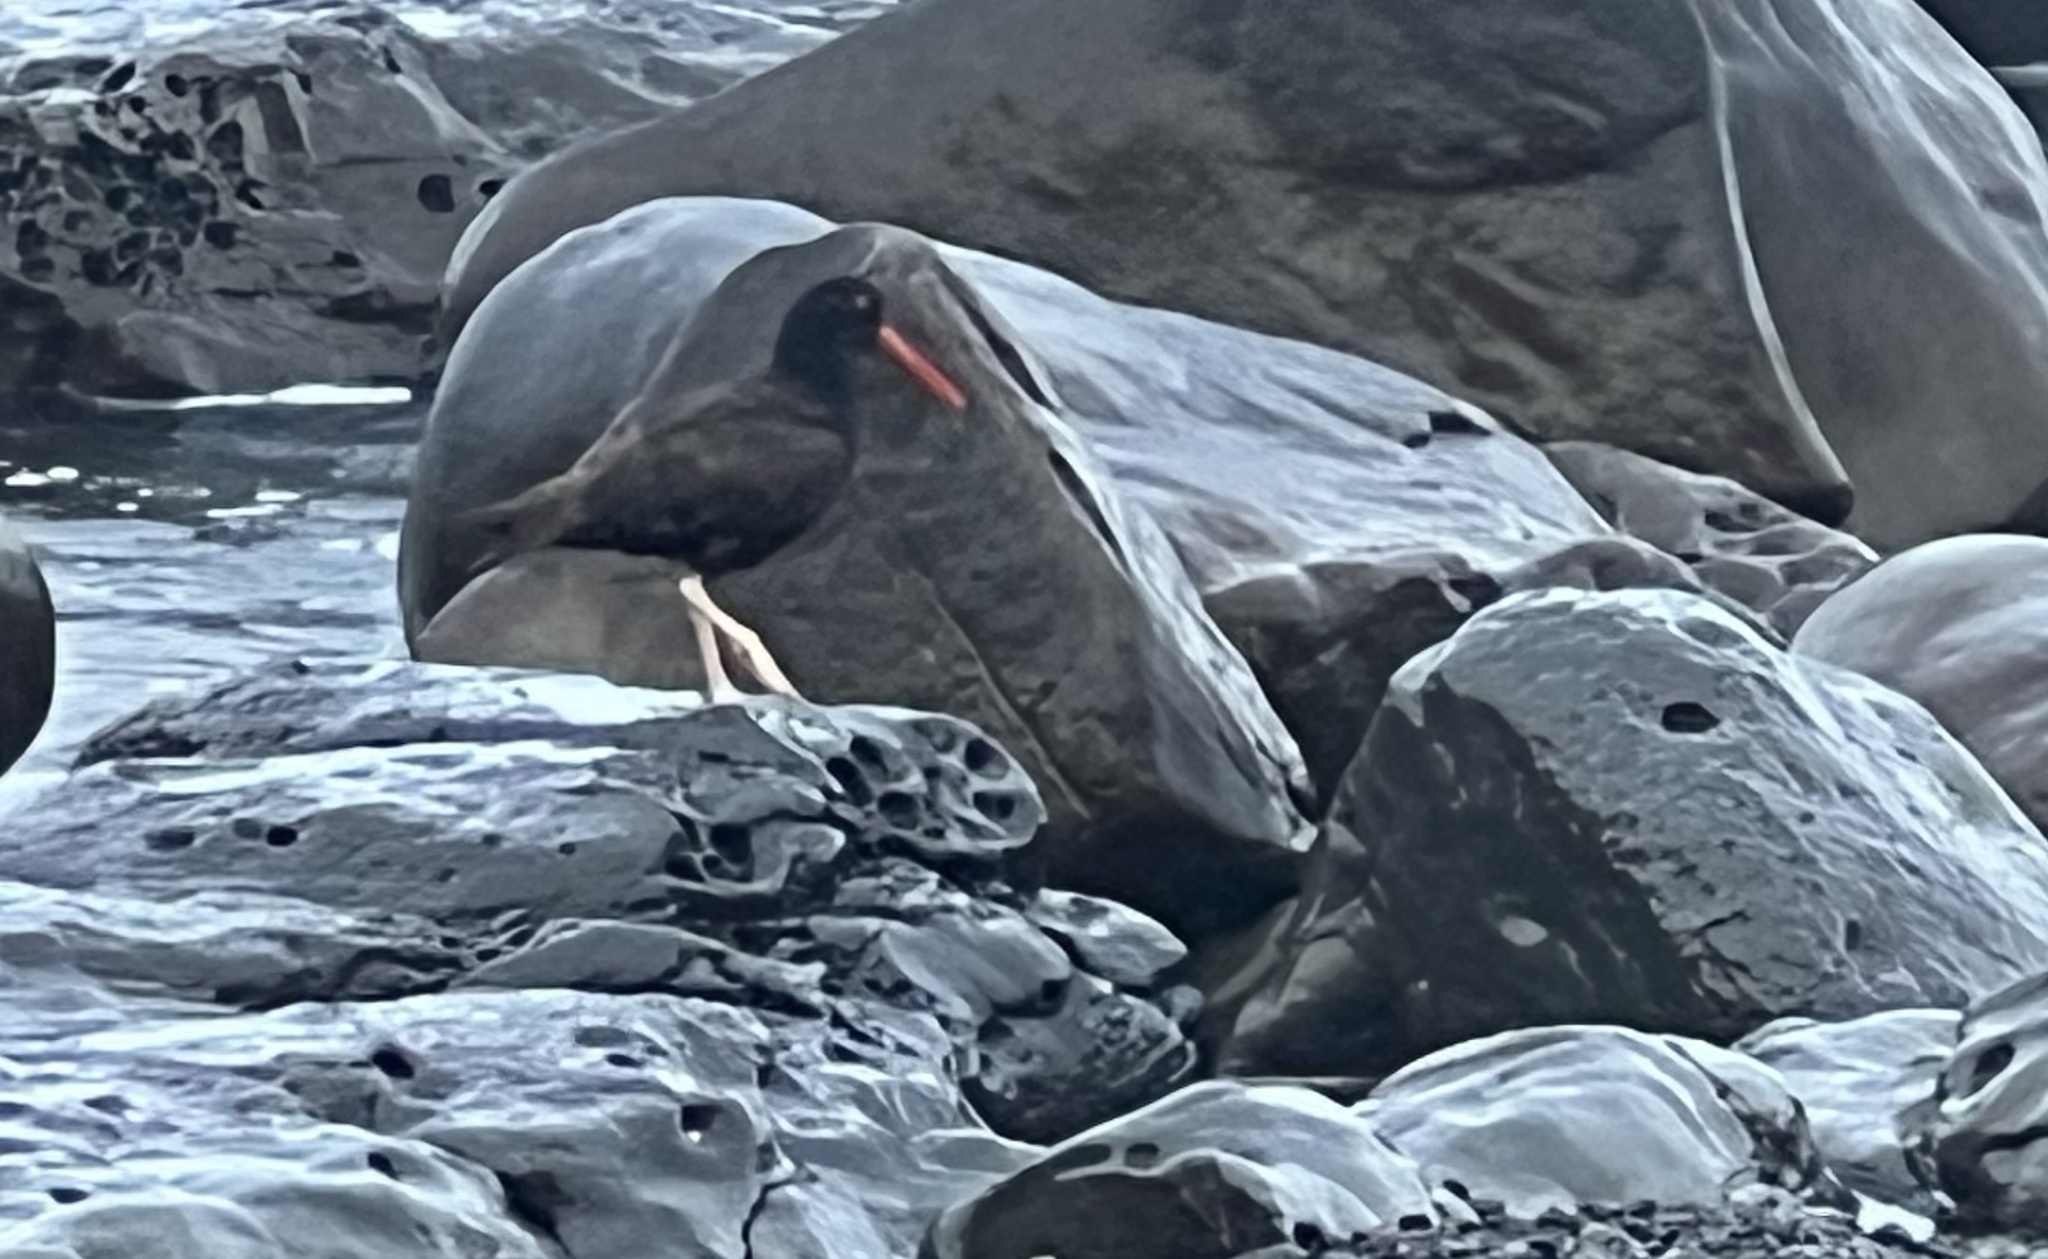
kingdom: Animalia
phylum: Chordata
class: Aves
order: Charadriiformes
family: Haematopodidae
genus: Haematopus
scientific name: Haematopus bachmani
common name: Black oystercatcher
